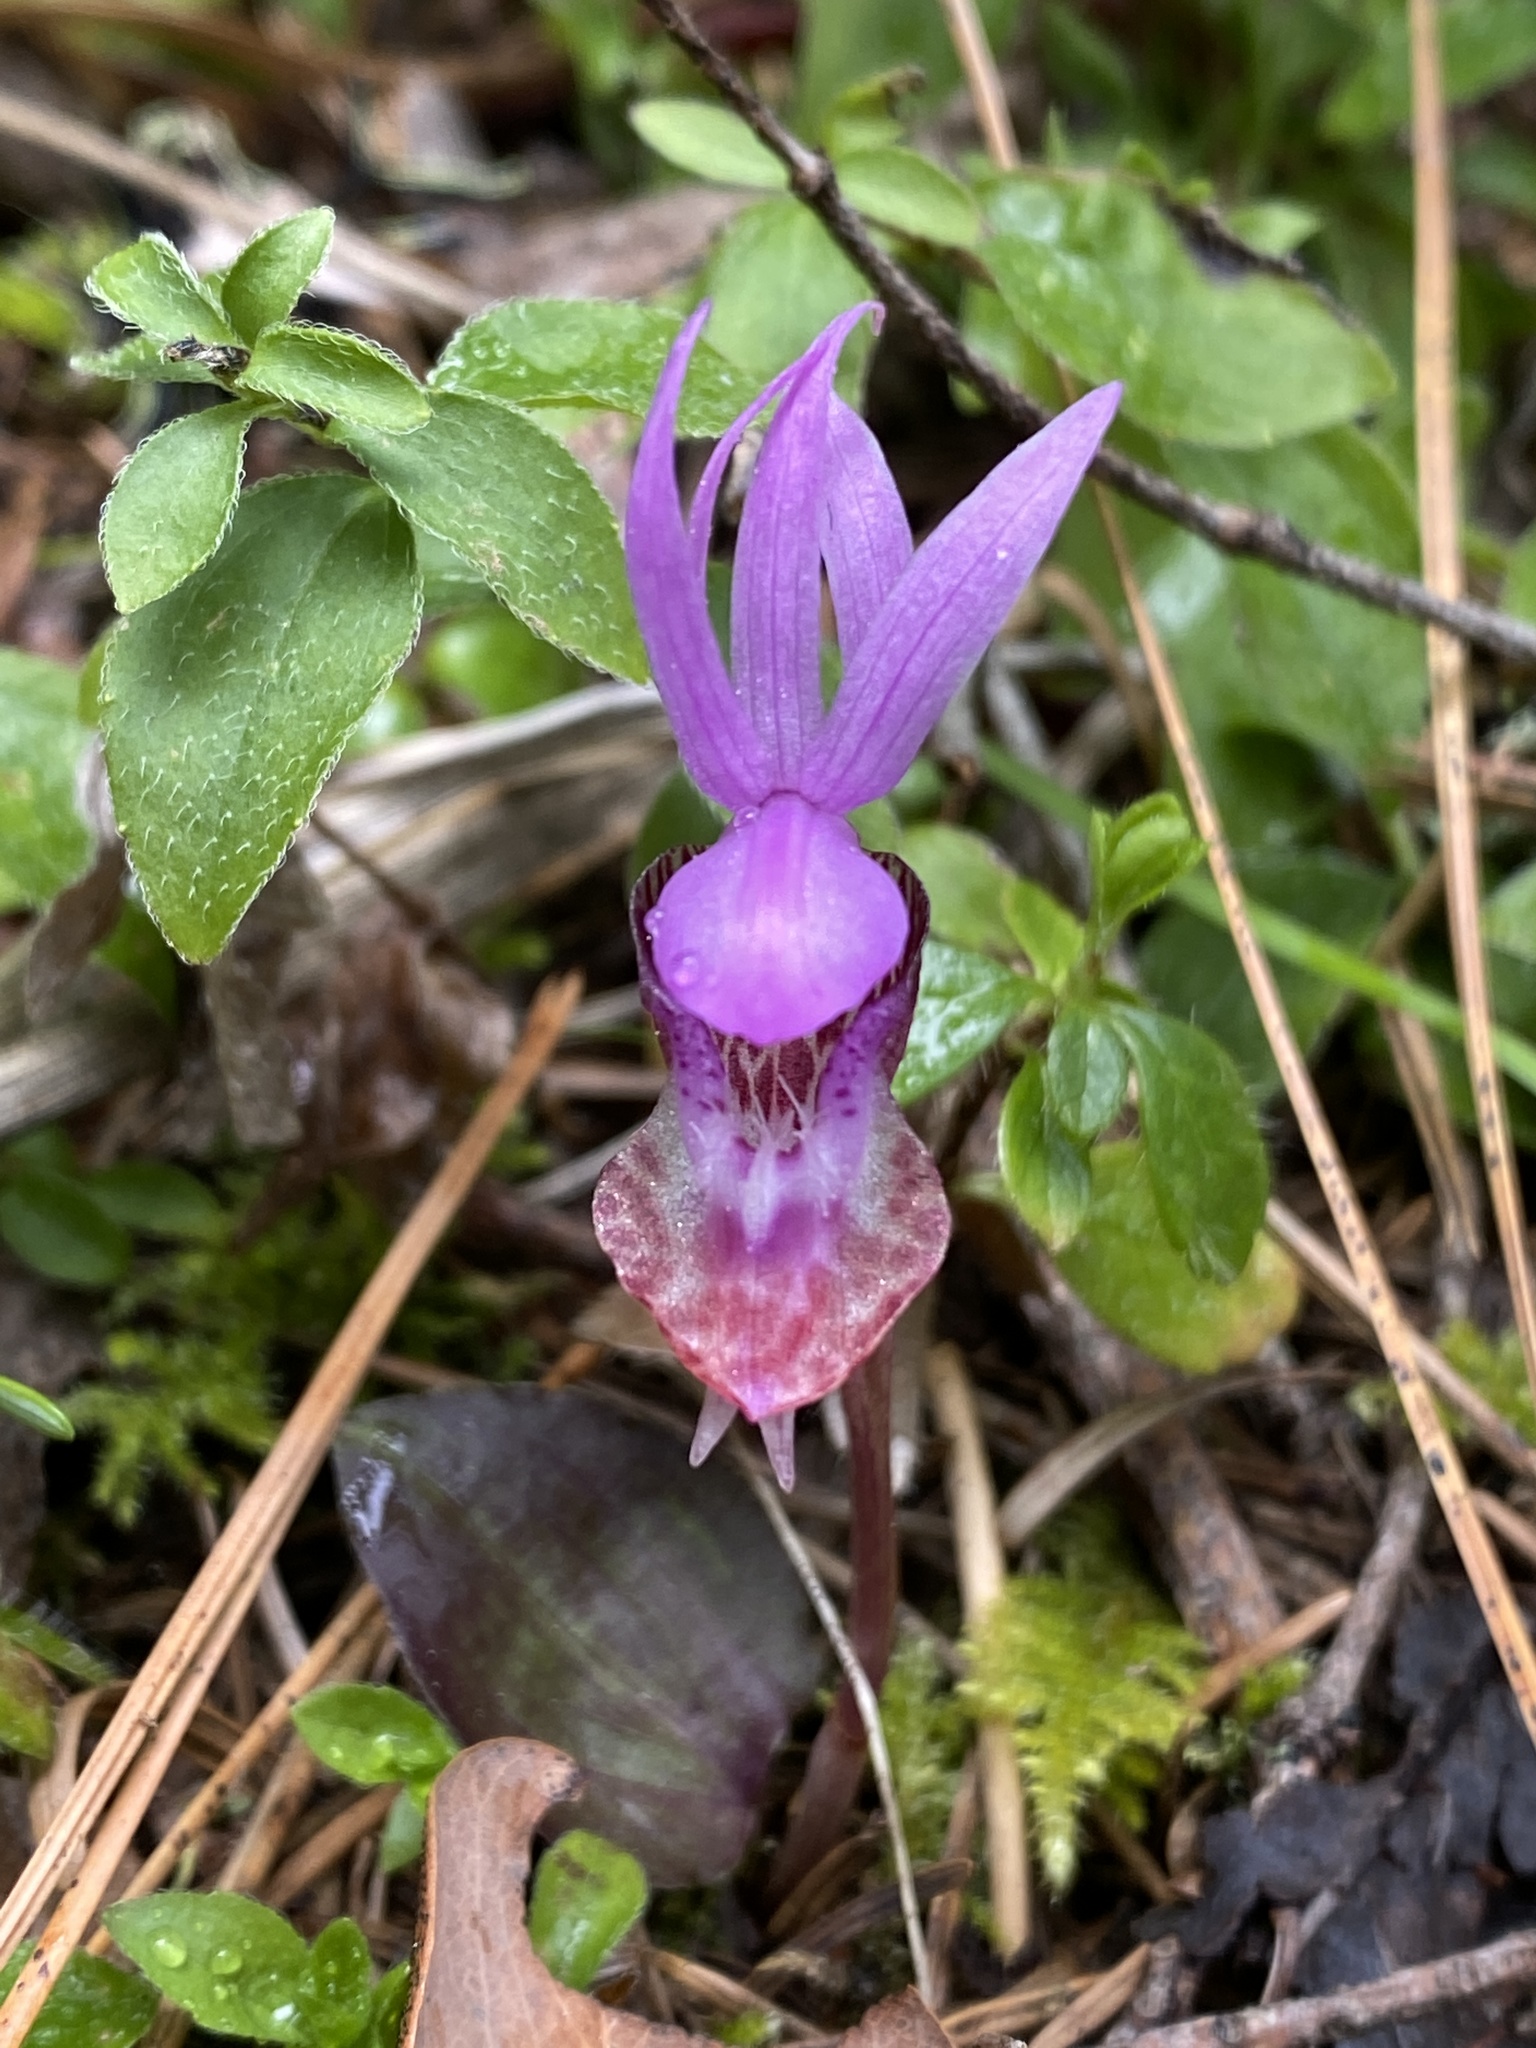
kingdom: Plantae
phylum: Tracheophyta
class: Liliopsida
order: Asparagales
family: Orchidaceae
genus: Calypso
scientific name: Calypso bulbosa
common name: Calypso
